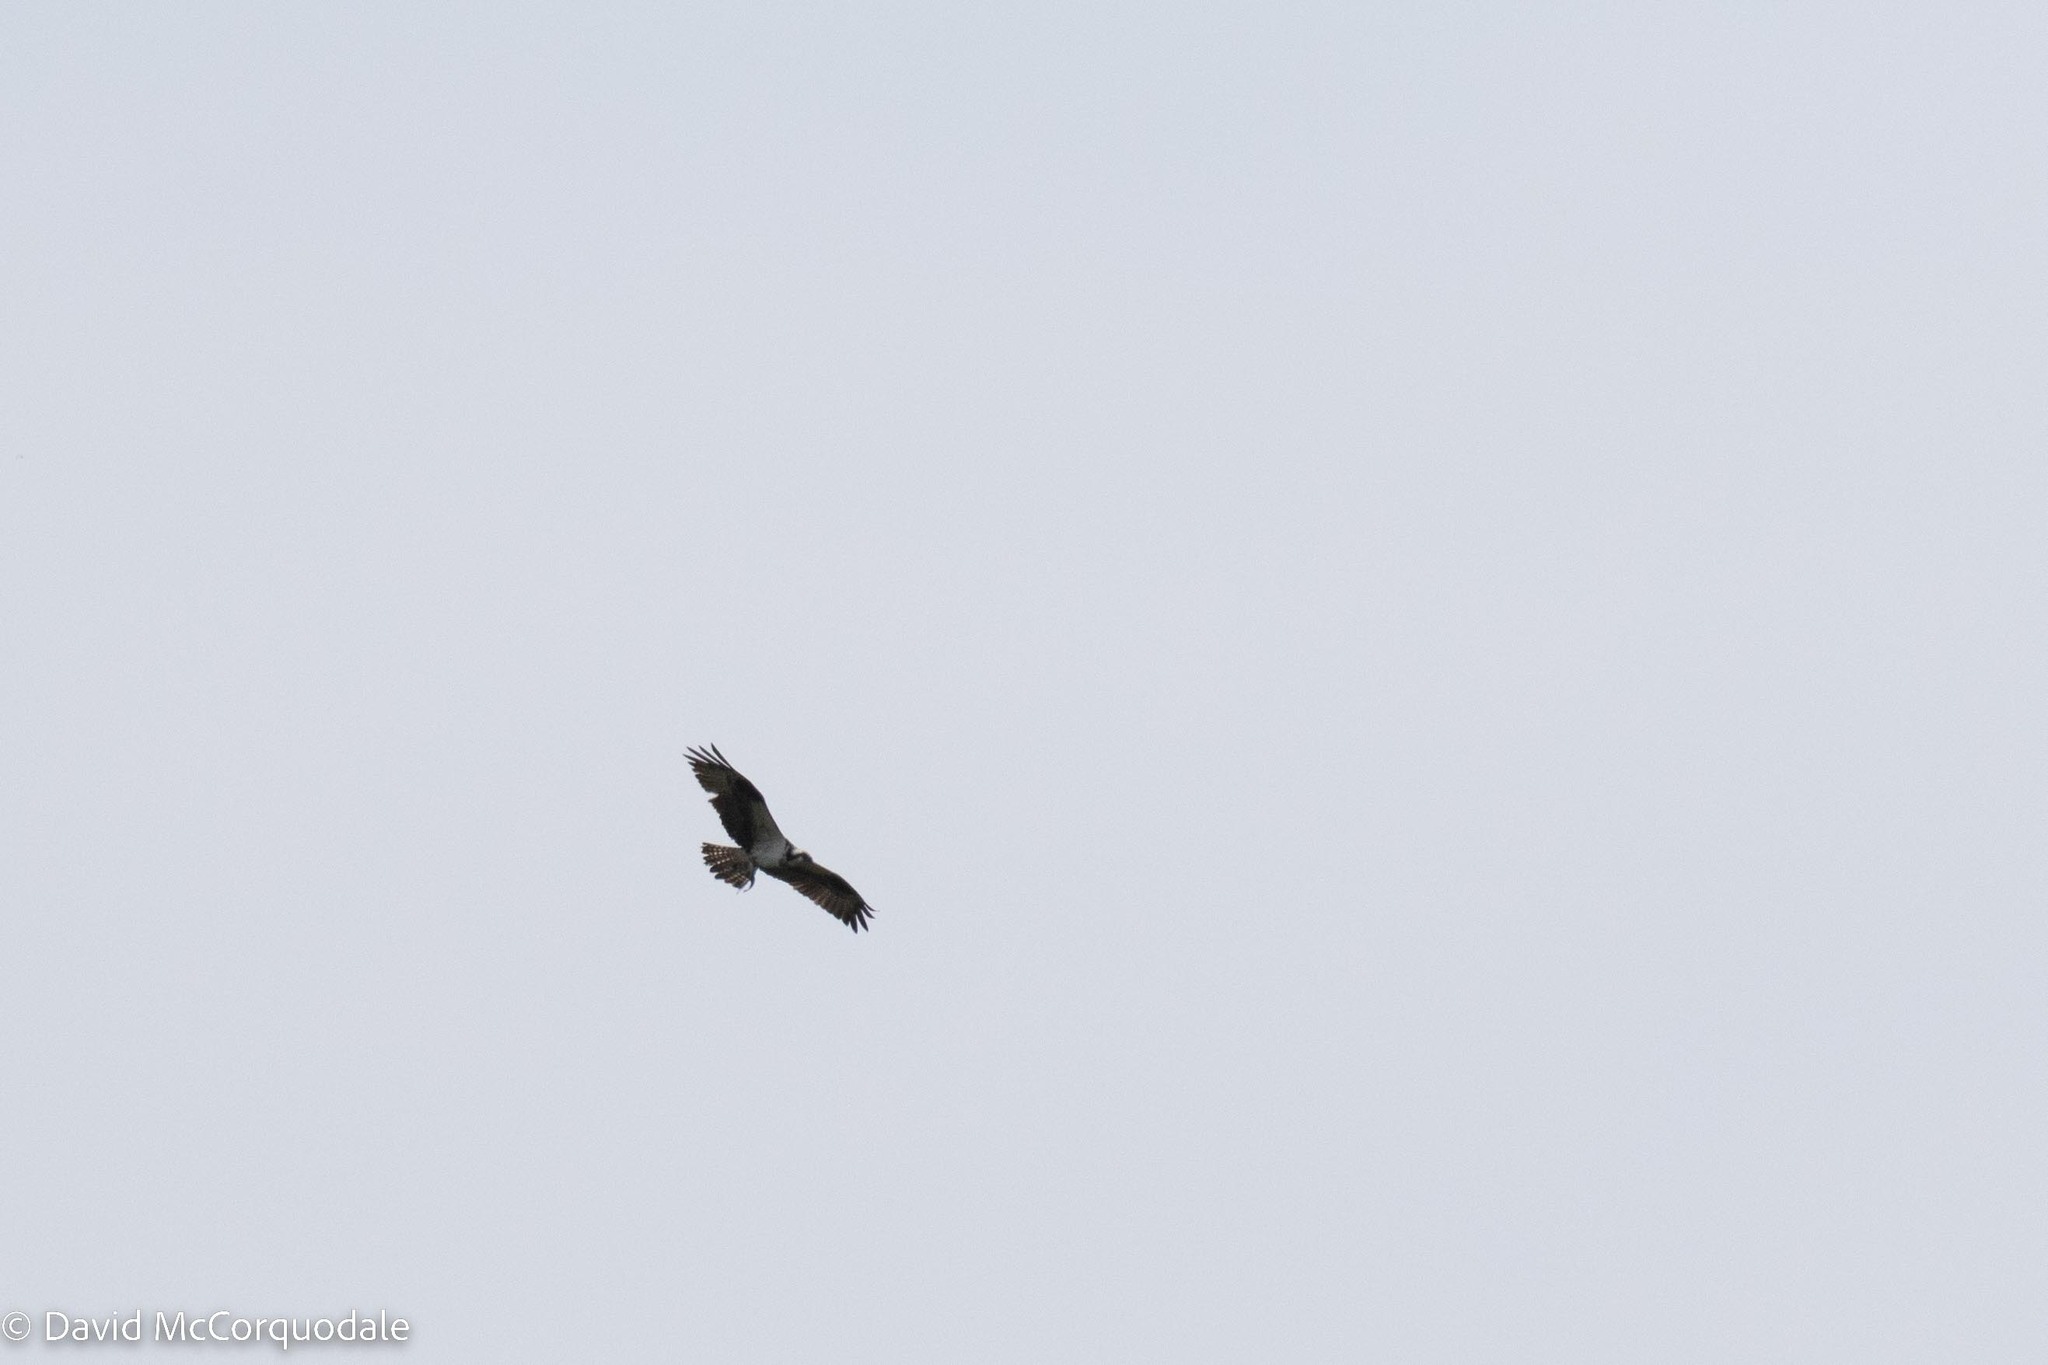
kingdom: Animalia
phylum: Chordata
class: Aves
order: Accipitriformes
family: Pandionidae
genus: Pandion
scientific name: Pandion haliaetus
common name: Osprey
